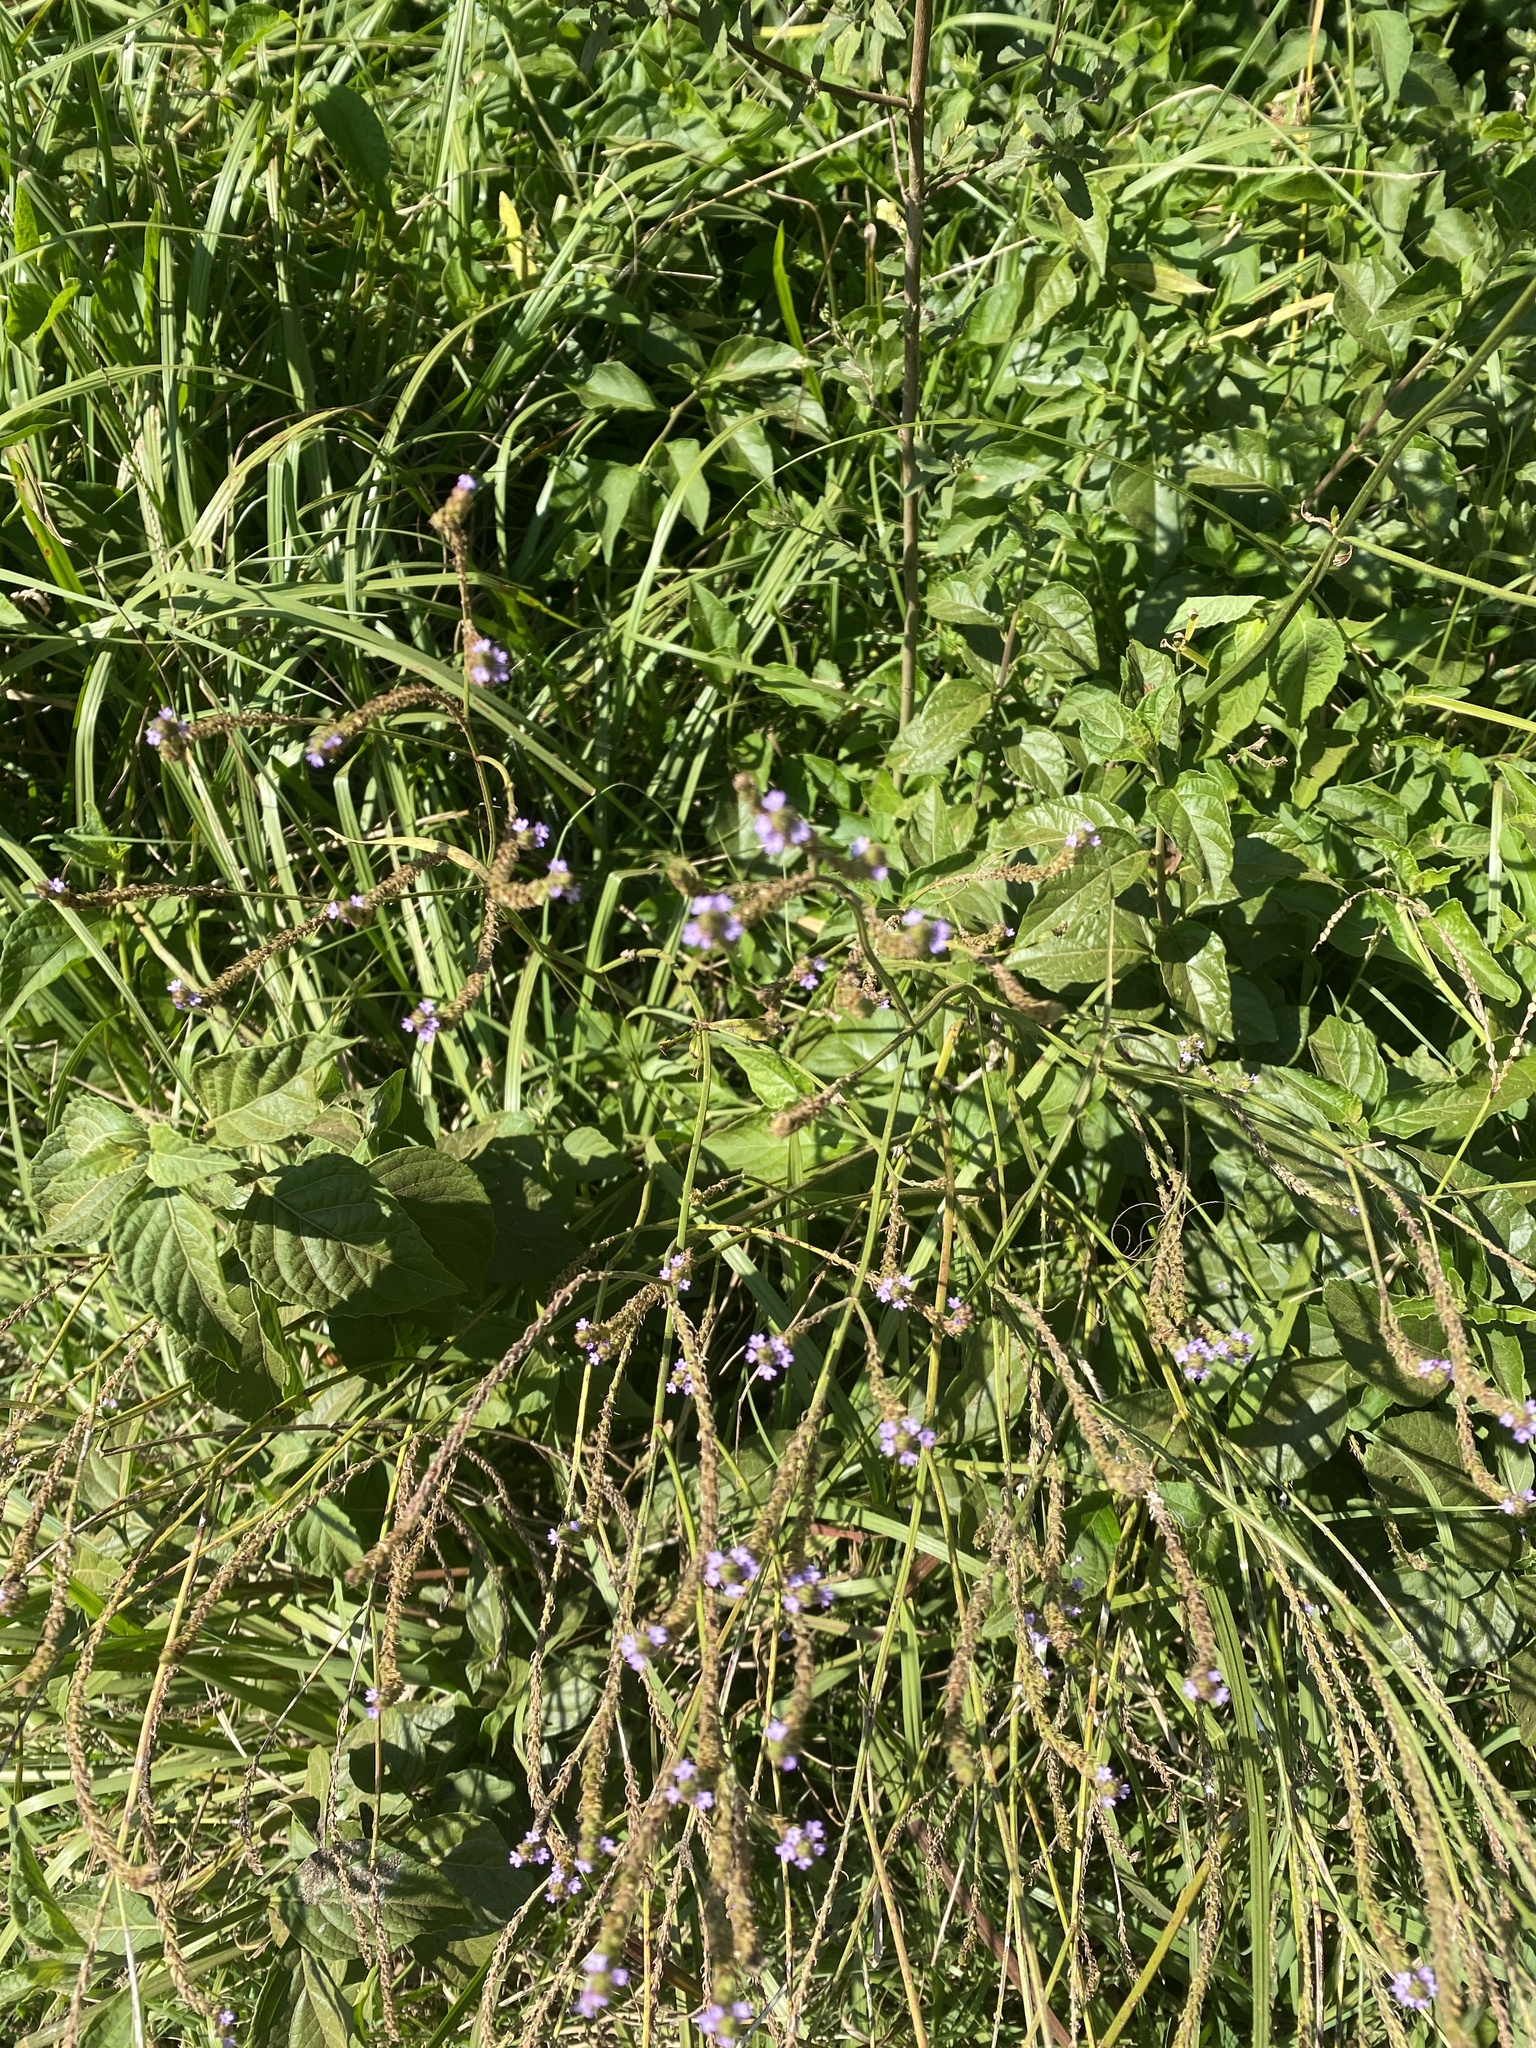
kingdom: Plantae
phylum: Tracheophyta
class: Magnoliopsida
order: Lamiales
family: Verbenaceae
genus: Verbena
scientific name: Verbena litoralis
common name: Seashore vervain
